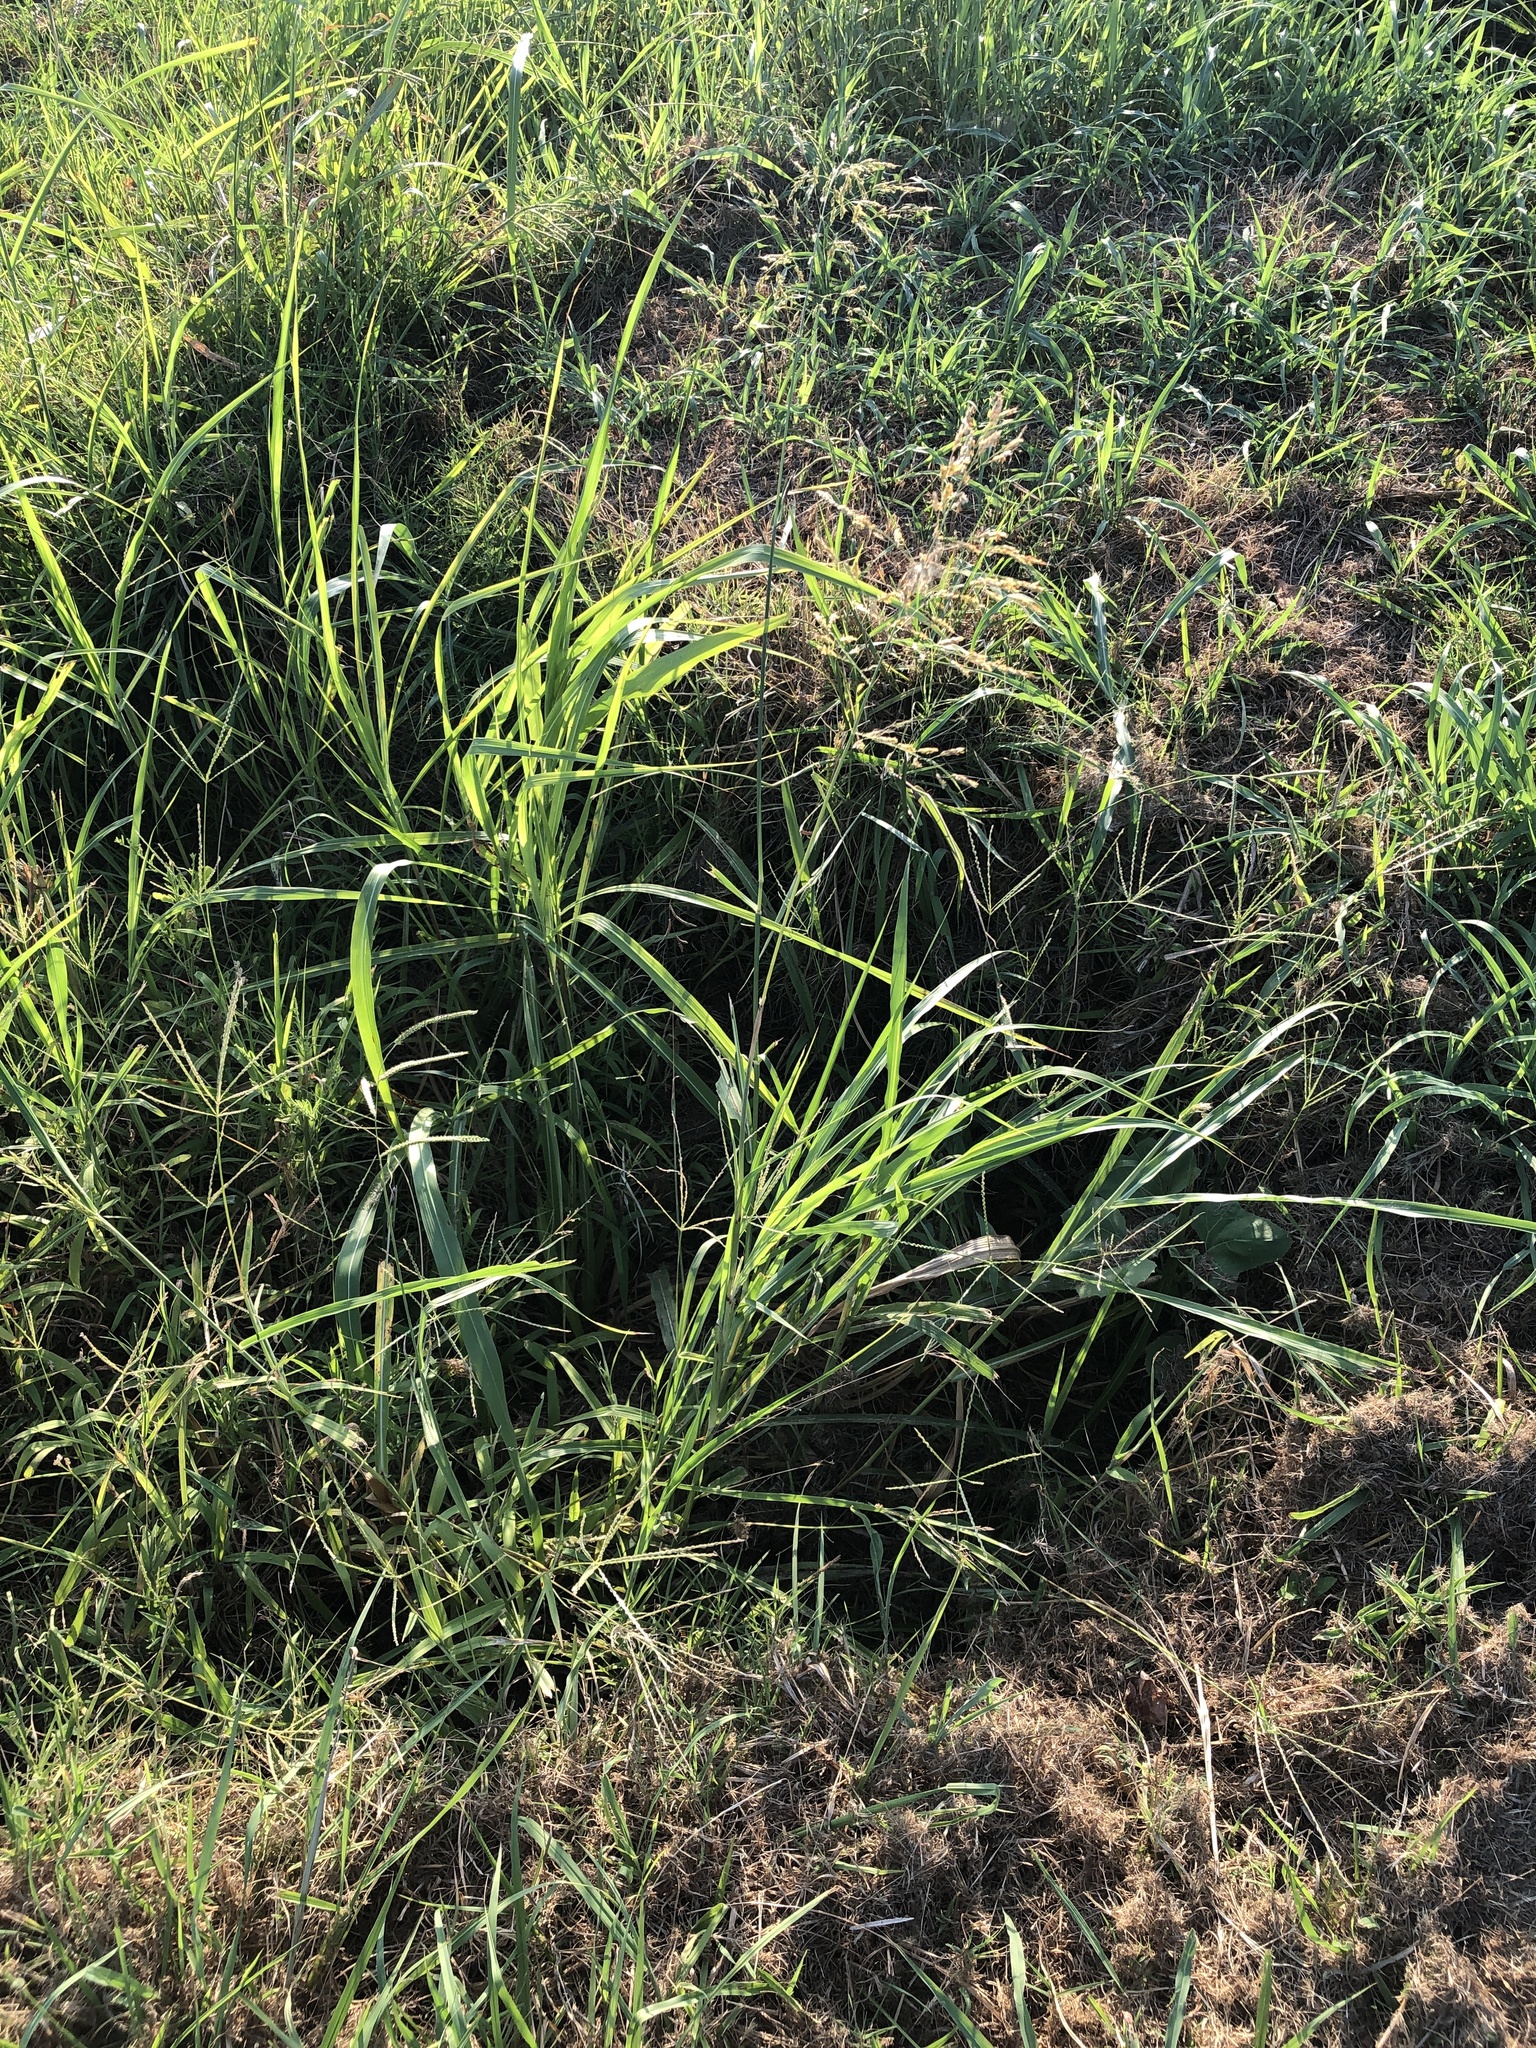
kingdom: Plantae
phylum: Tracheophyta
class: Liliopsida
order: Poales
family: Poaceae
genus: Sorghum
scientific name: Sorghum halepense
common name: Johnson-grass
